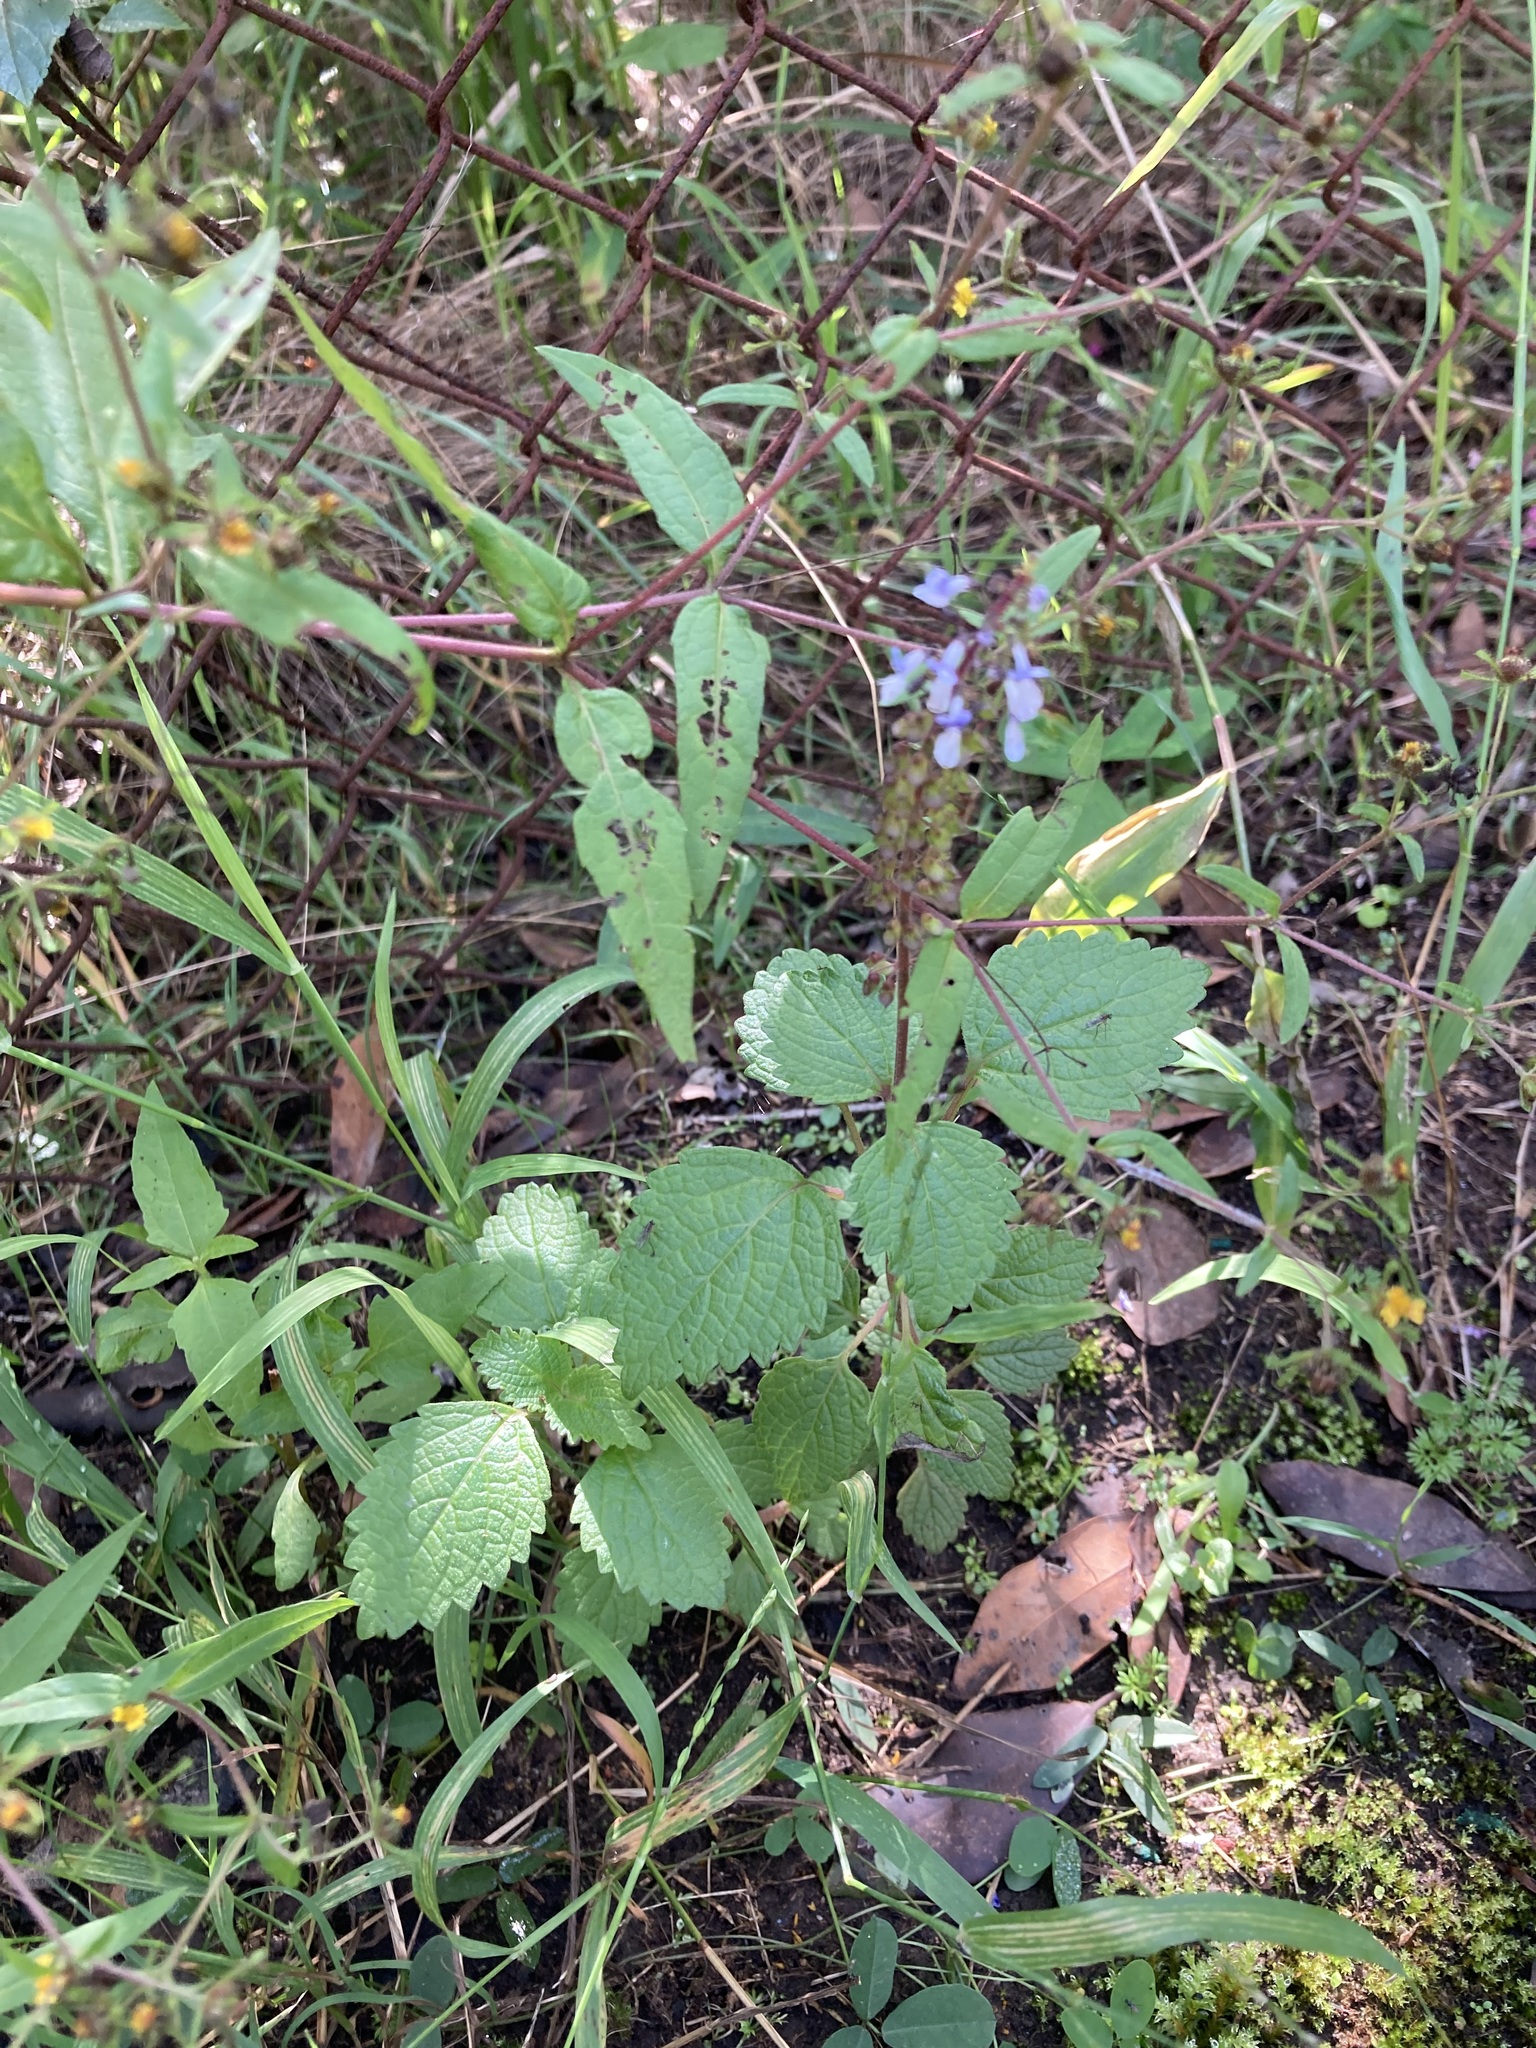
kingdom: Plantae
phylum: Tracheophyta
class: Magnoliopsida
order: Lamiales
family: Lamiaceae
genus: Coleus
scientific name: Coleus australis
